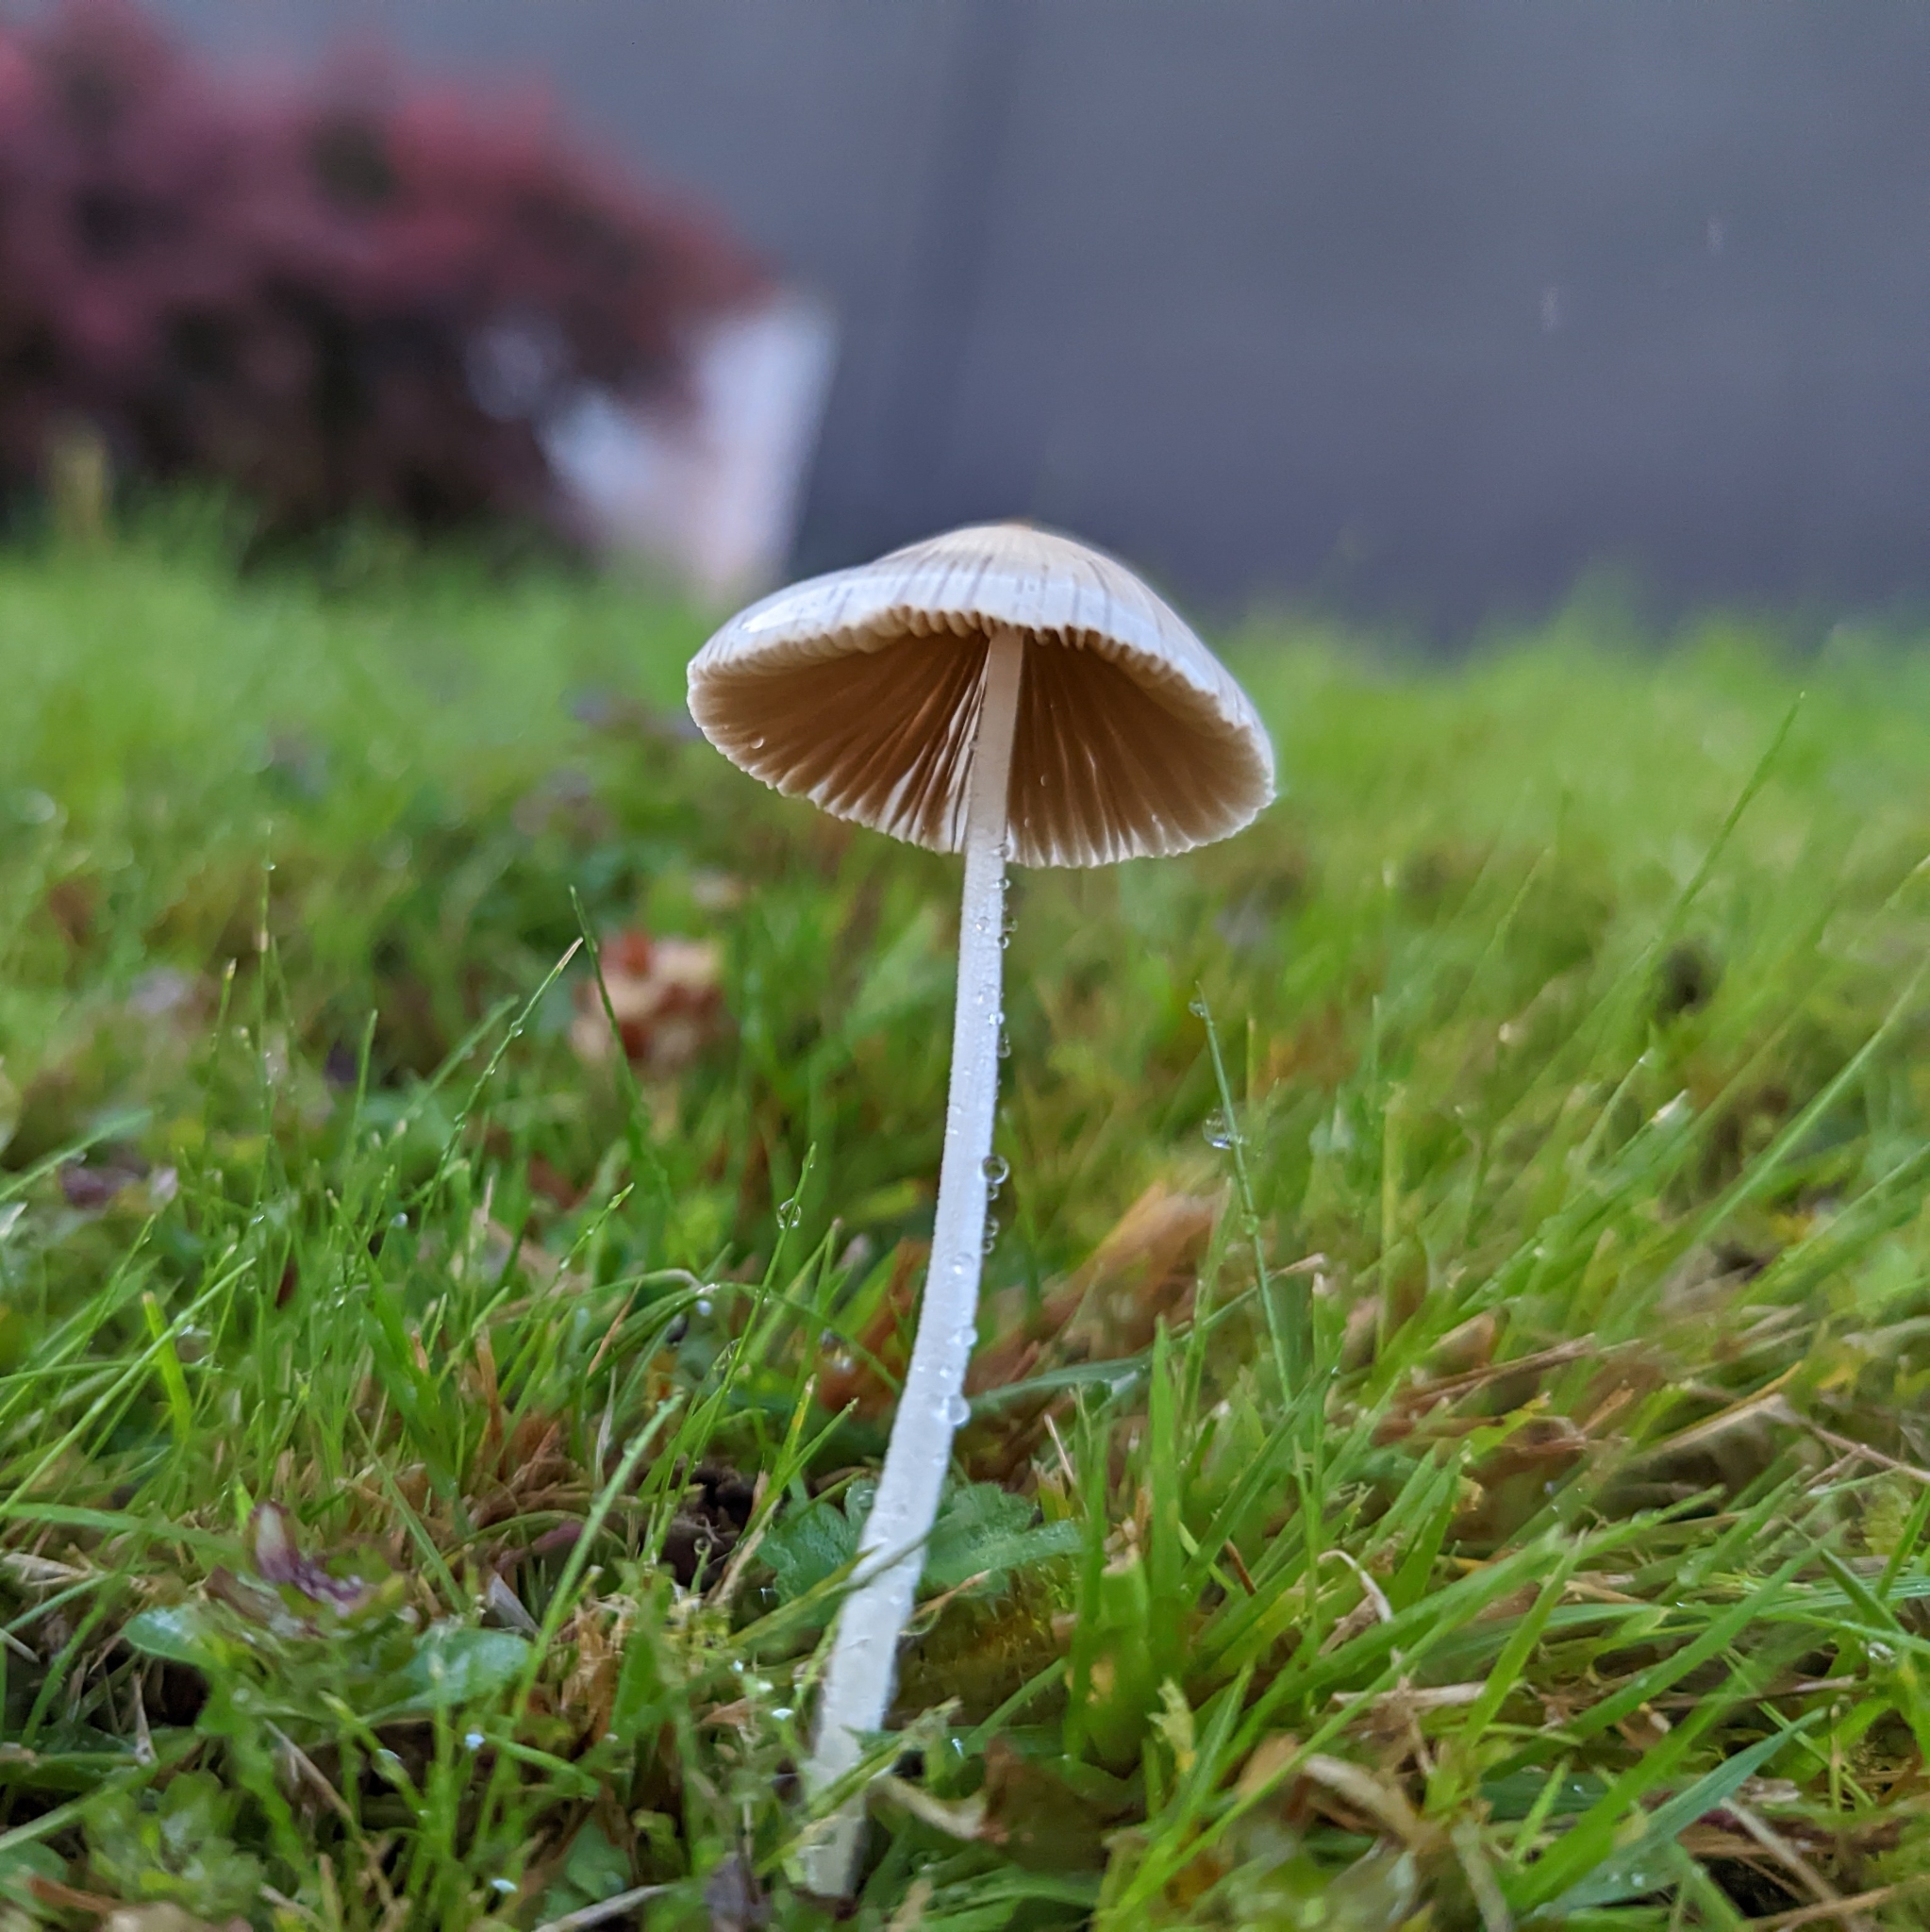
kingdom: Fungi
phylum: Basidiomycota
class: Agaricomycetes
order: Agaricales
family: Bolbitiaceae
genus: Conocybe
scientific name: Conocybe apala
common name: Milky conecap
